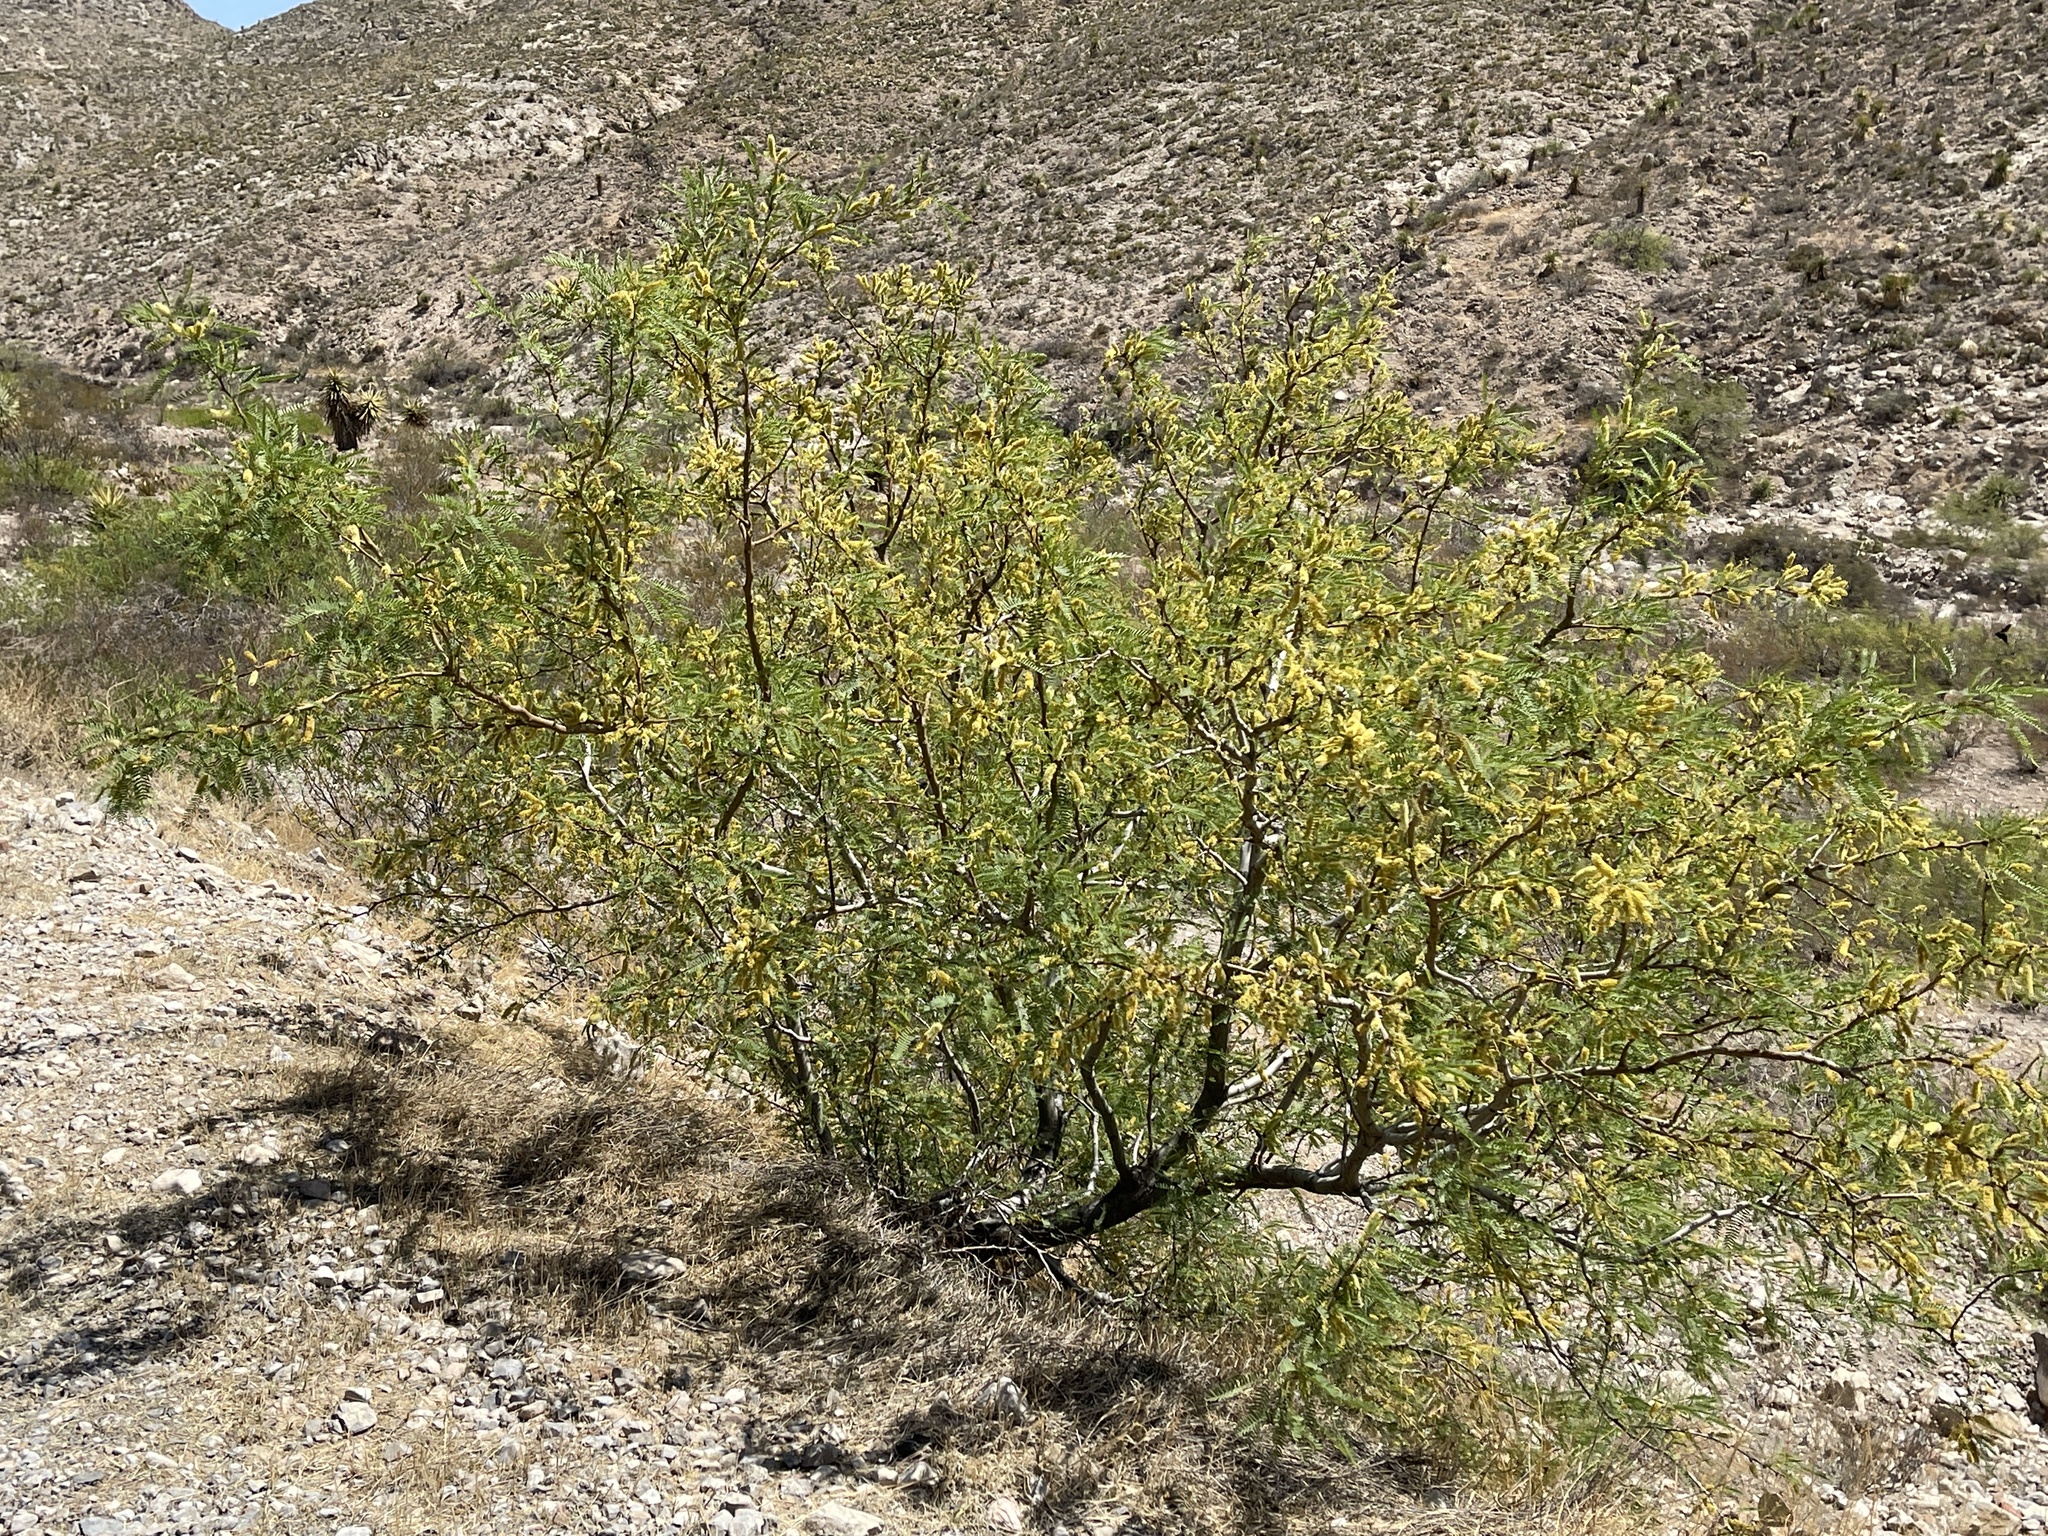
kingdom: Plantae
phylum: Tracheophyta
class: Magnoliopsida
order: Fabales
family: Fabaceae
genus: Prosopis
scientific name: Prosopis glandulosa
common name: Honey mesquite
